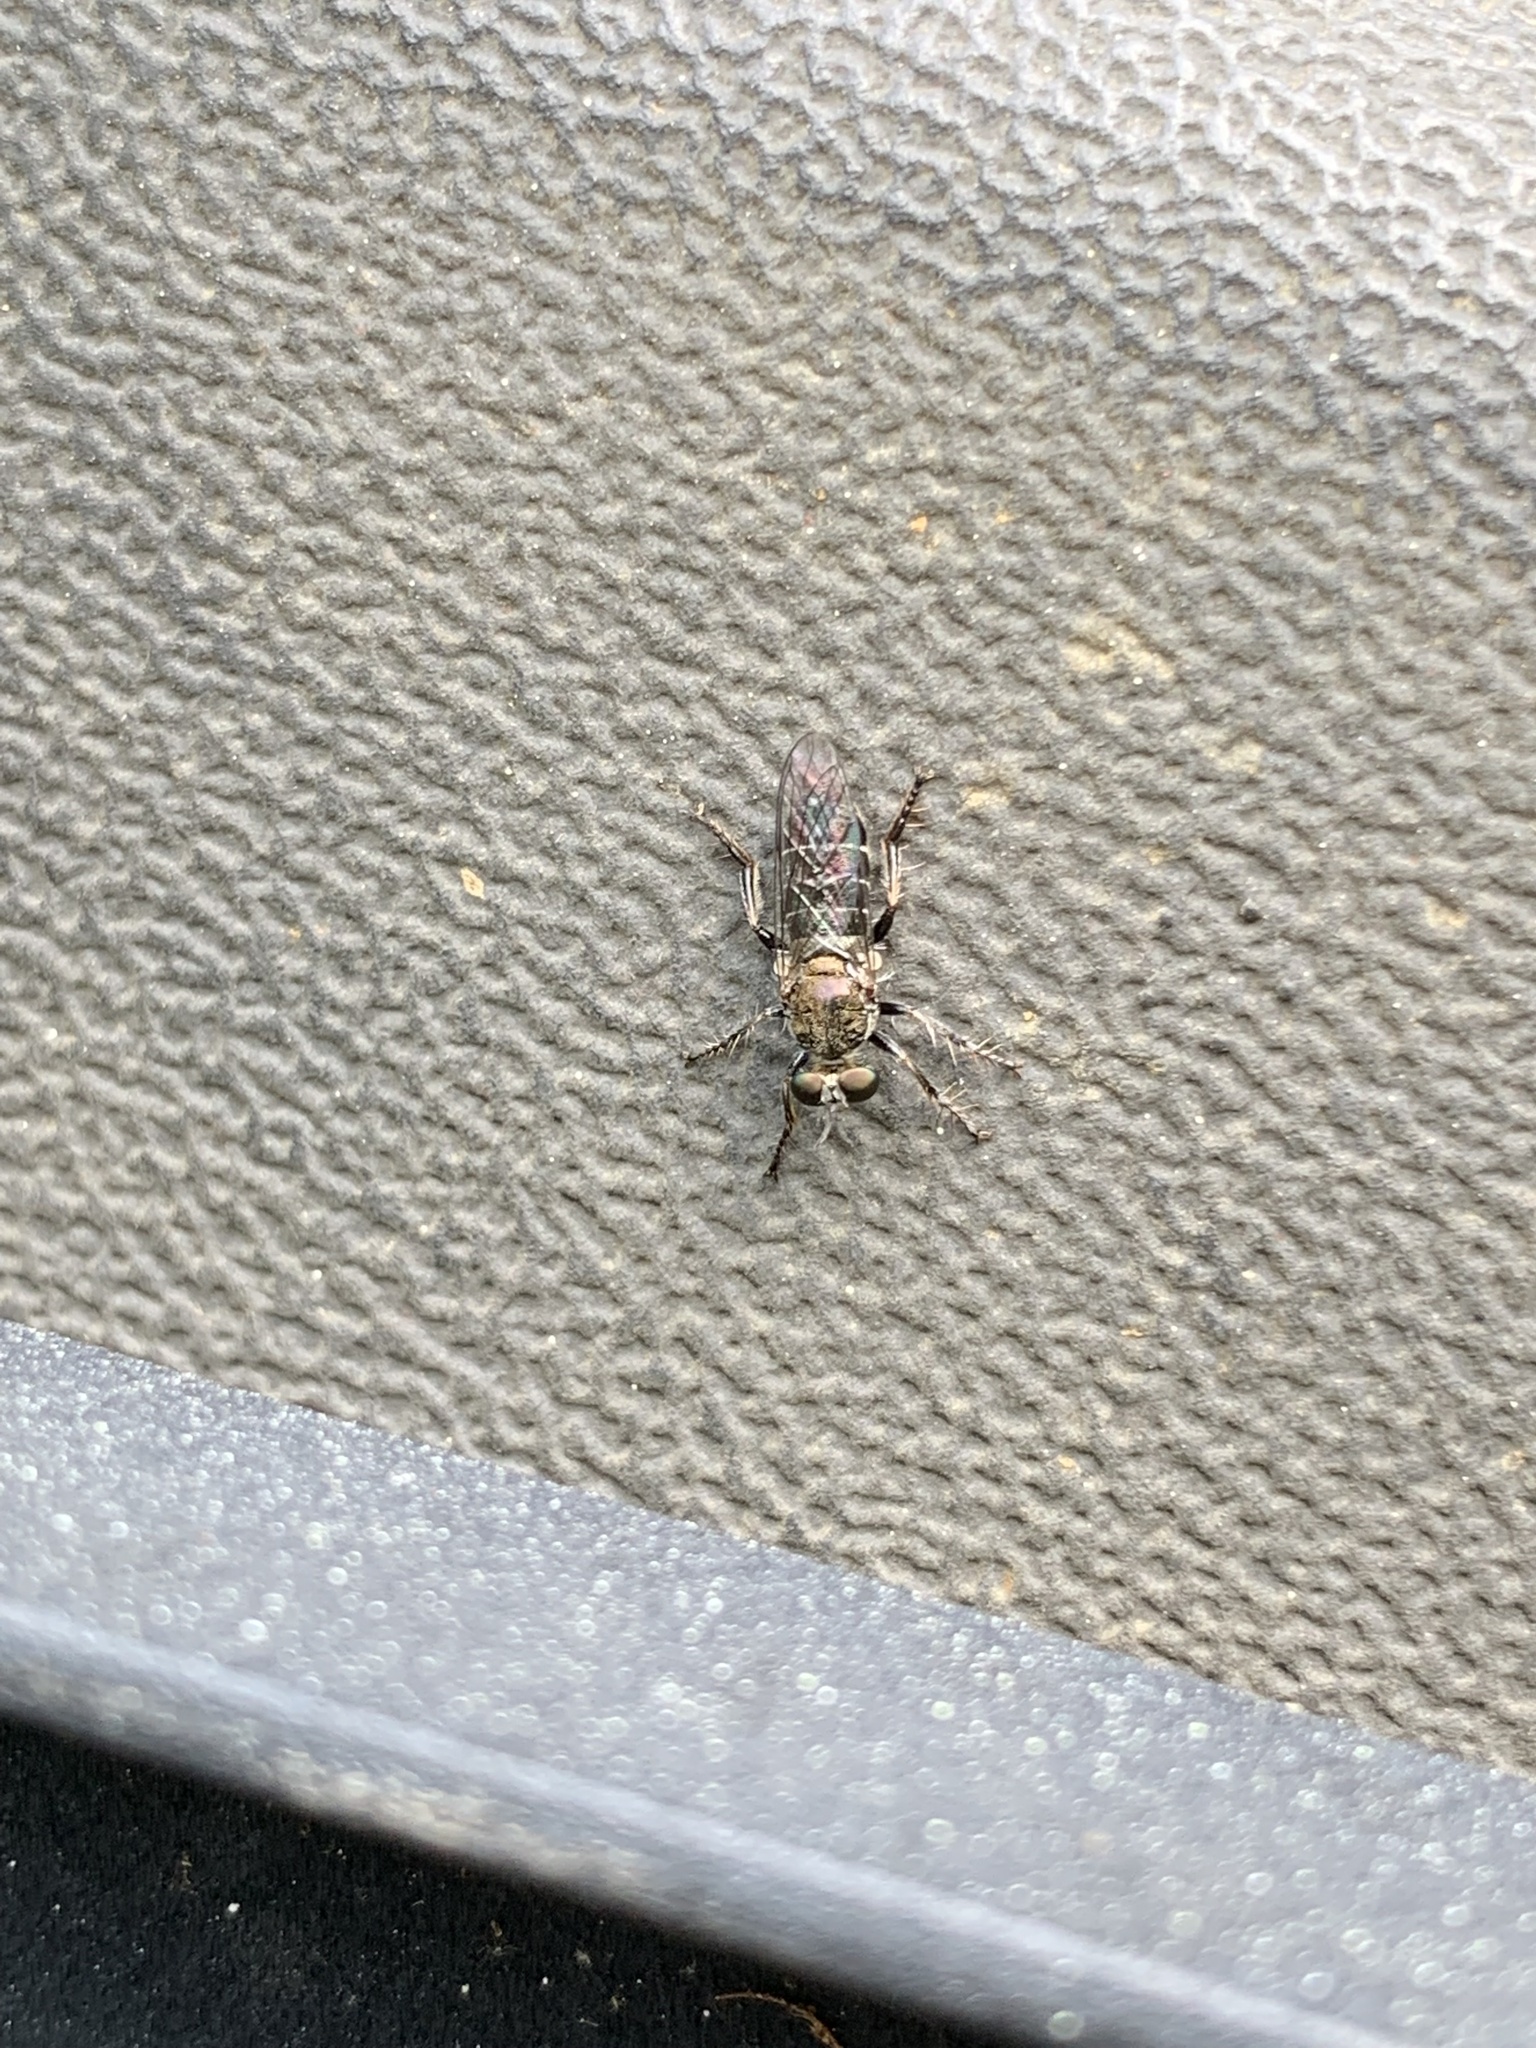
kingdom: Animalia
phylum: Arthropoda
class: Insecta
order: Diptera
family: Asilidae
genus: Atomosia
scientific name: Atomosia puella
